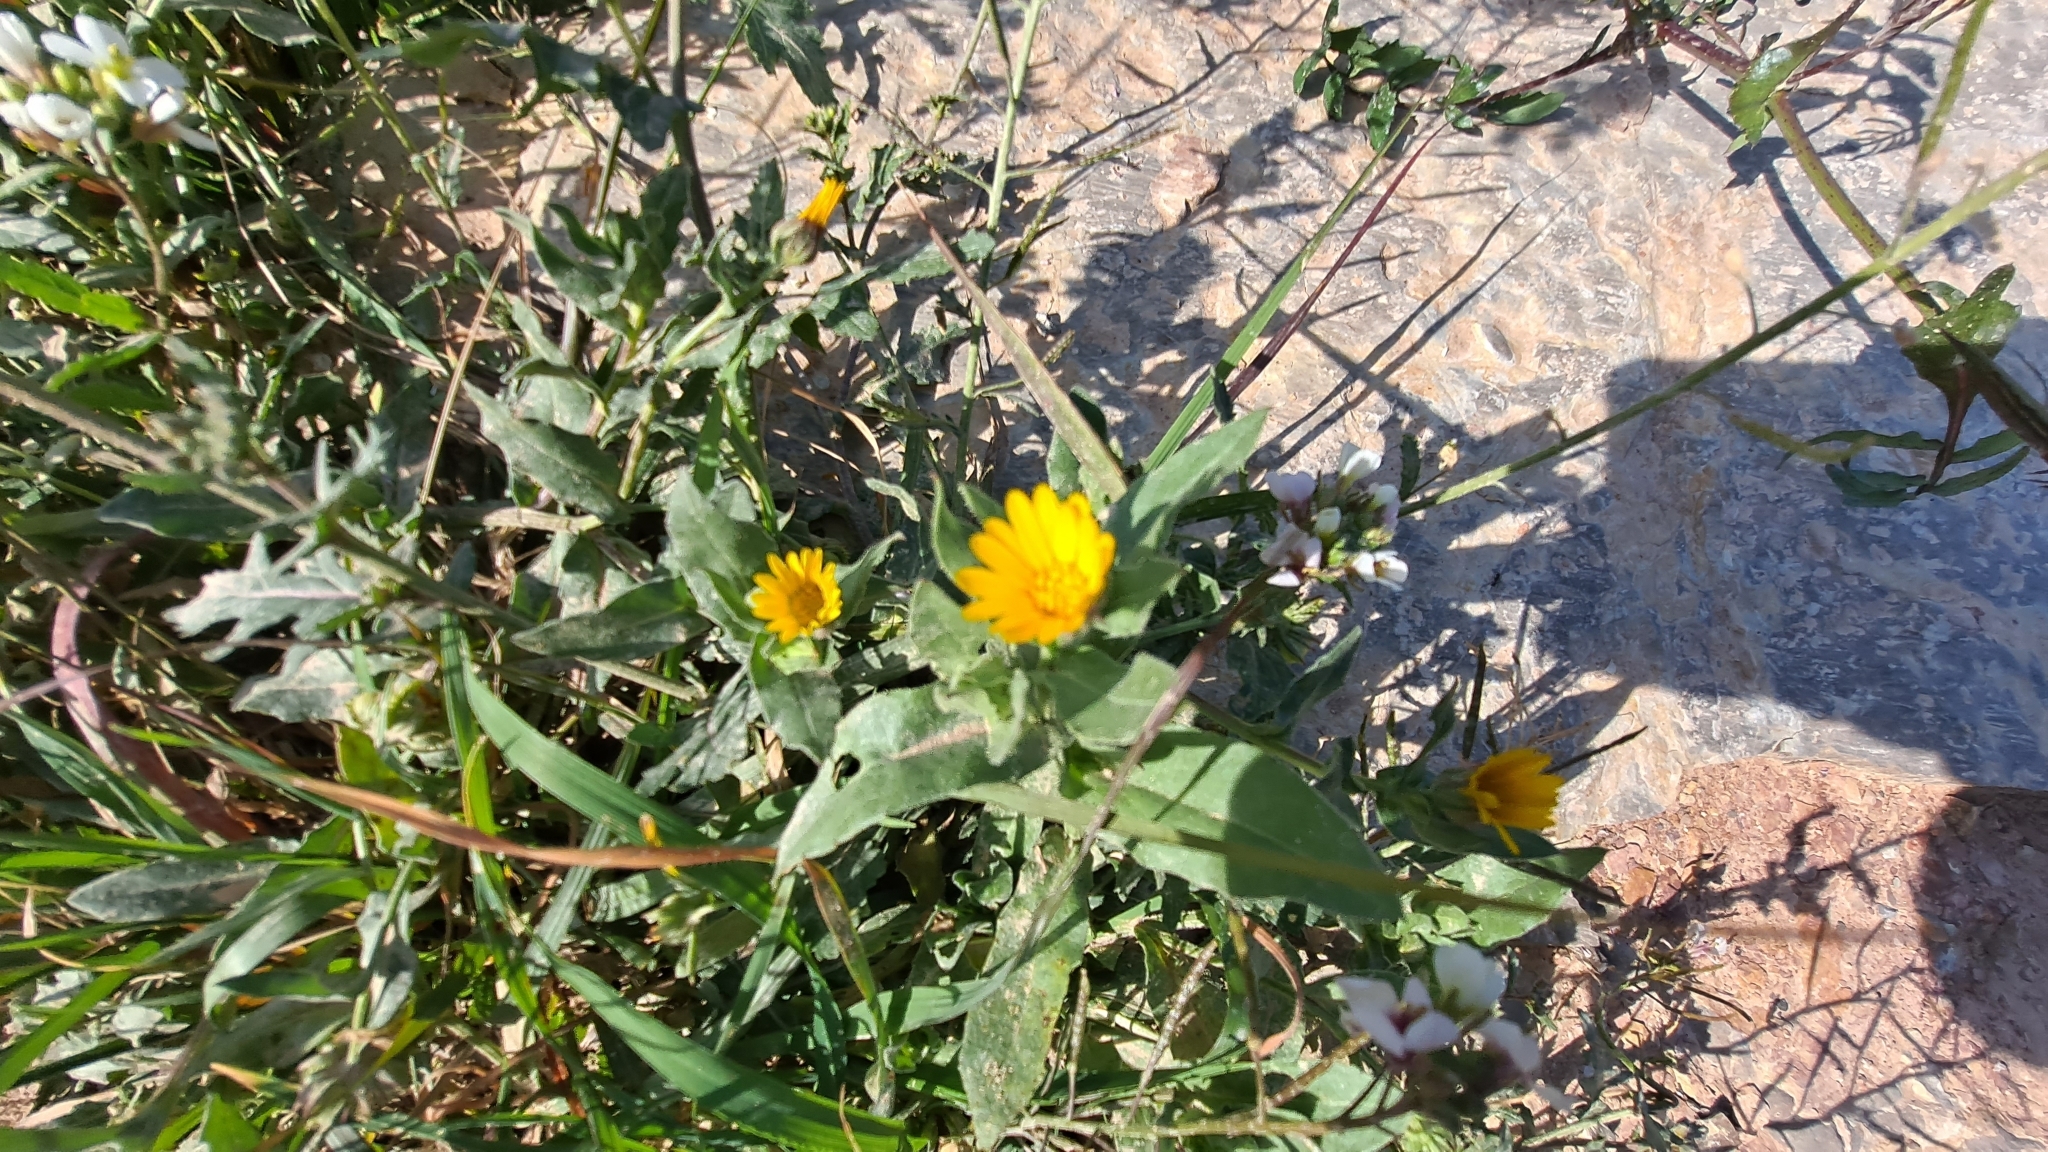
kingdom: Plantae
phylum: Tracheophyta
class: Magnoliopsida
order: Asterales
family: Asteraceae
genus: Calendula
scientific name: Calendula arvensis
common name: Field marigold
